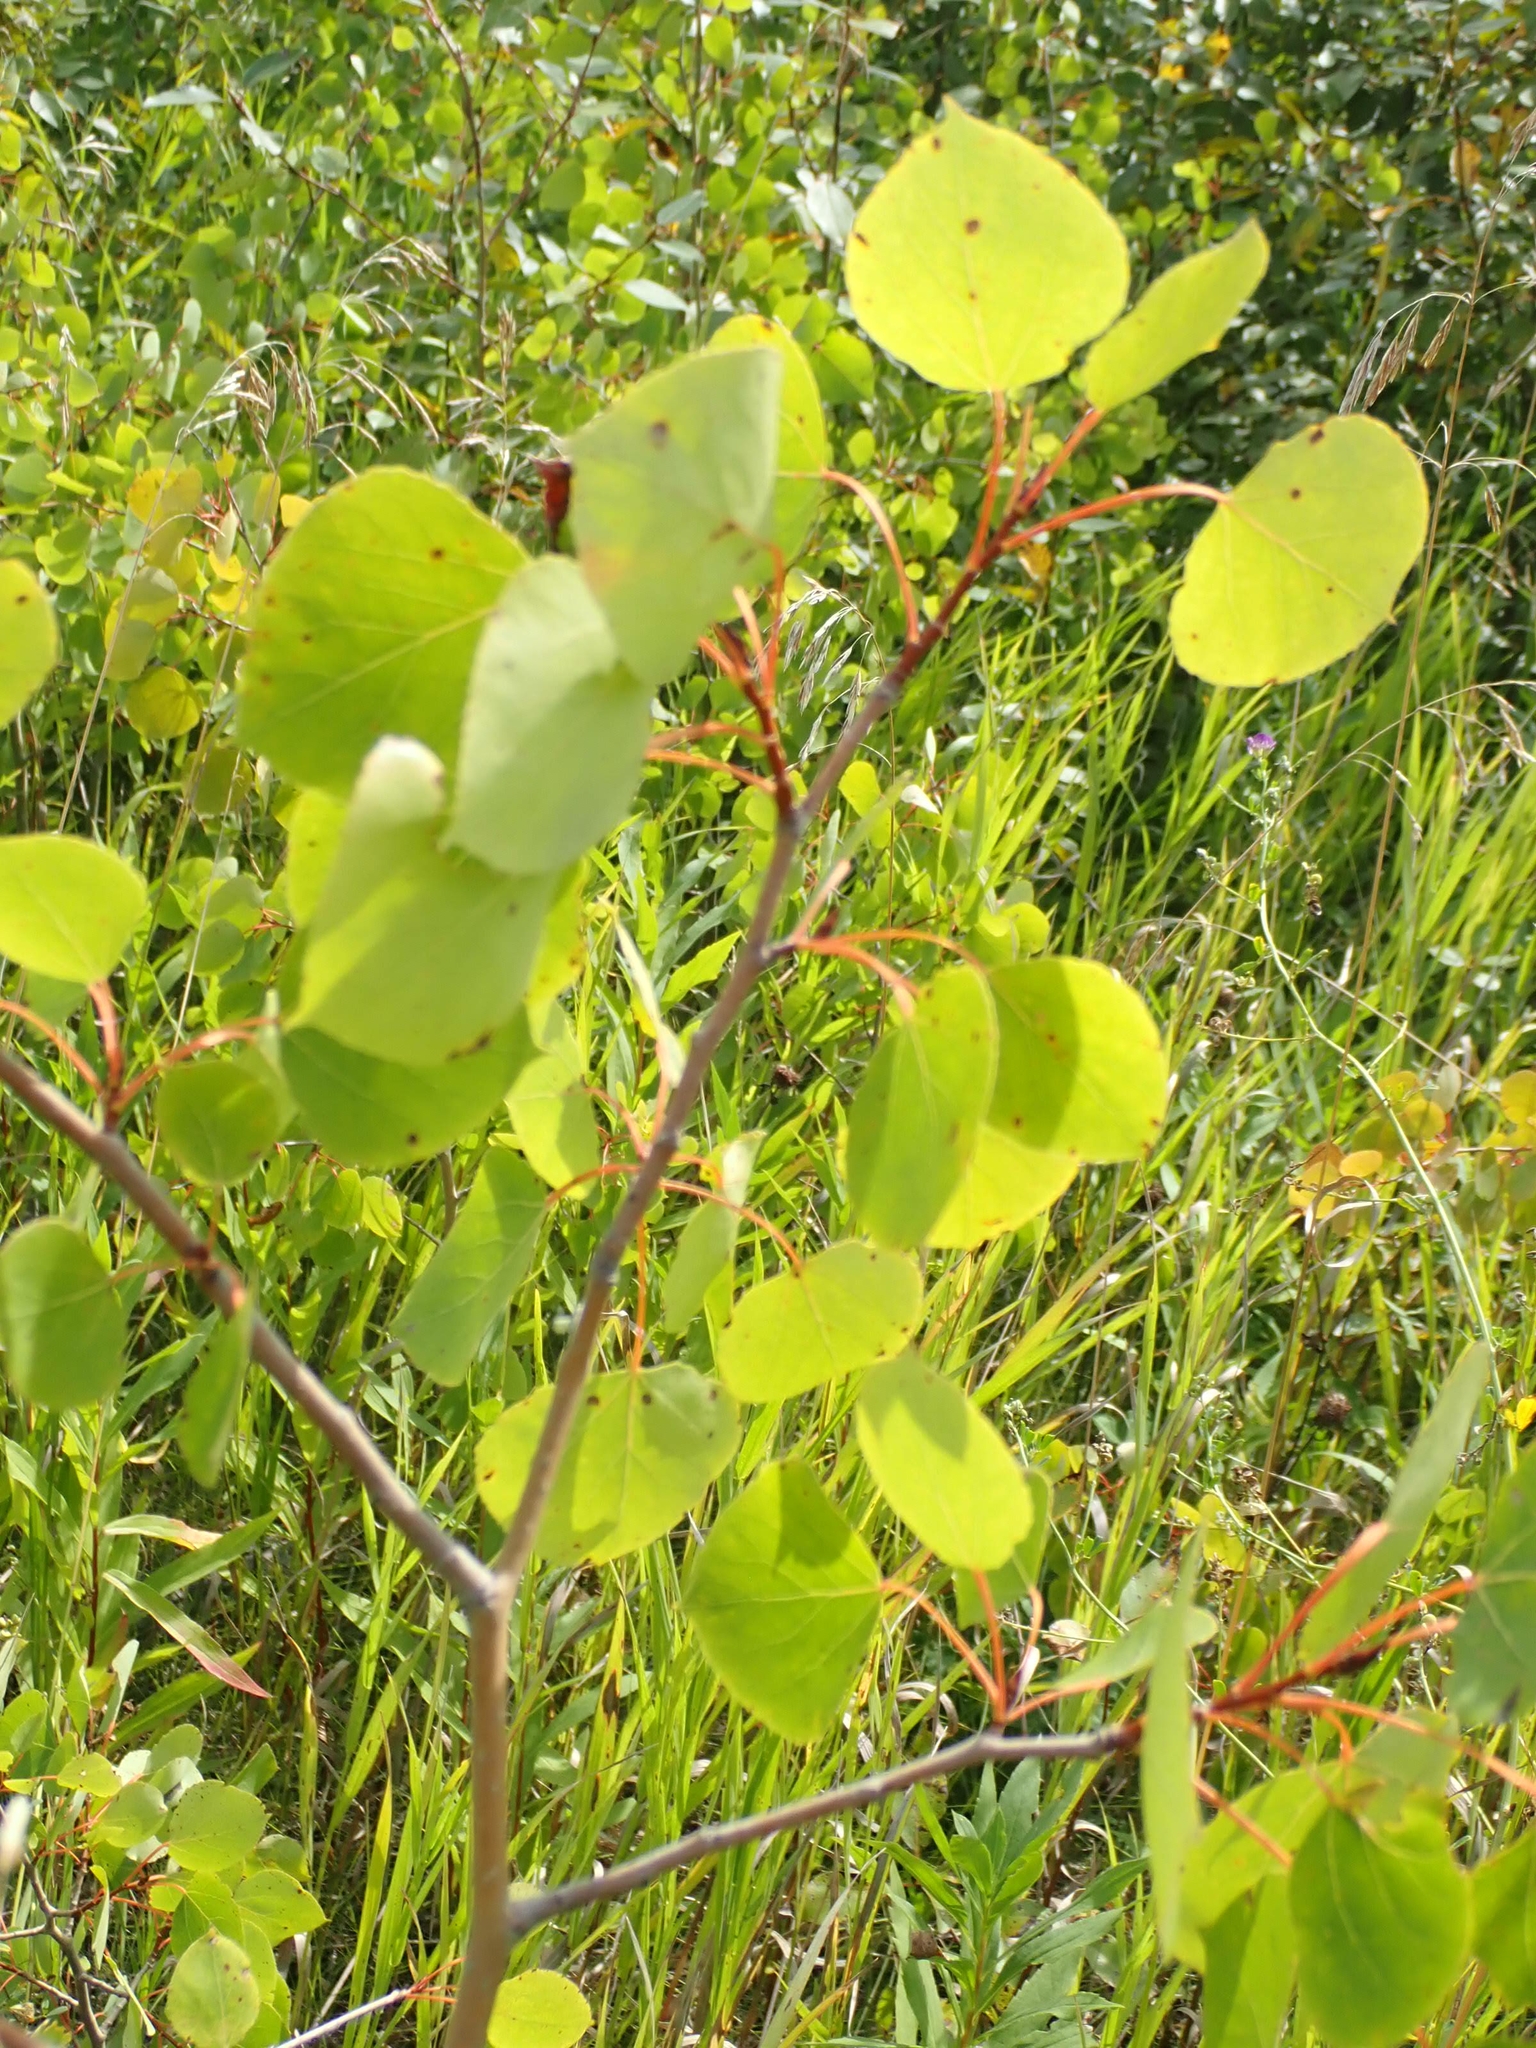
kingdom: Plantae
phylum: Tracheophyta
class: Magnoliopsida
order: Malpighiales
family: Salicaceae
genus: Populus
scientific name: Populus tremuloides
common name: Quaking aspen
